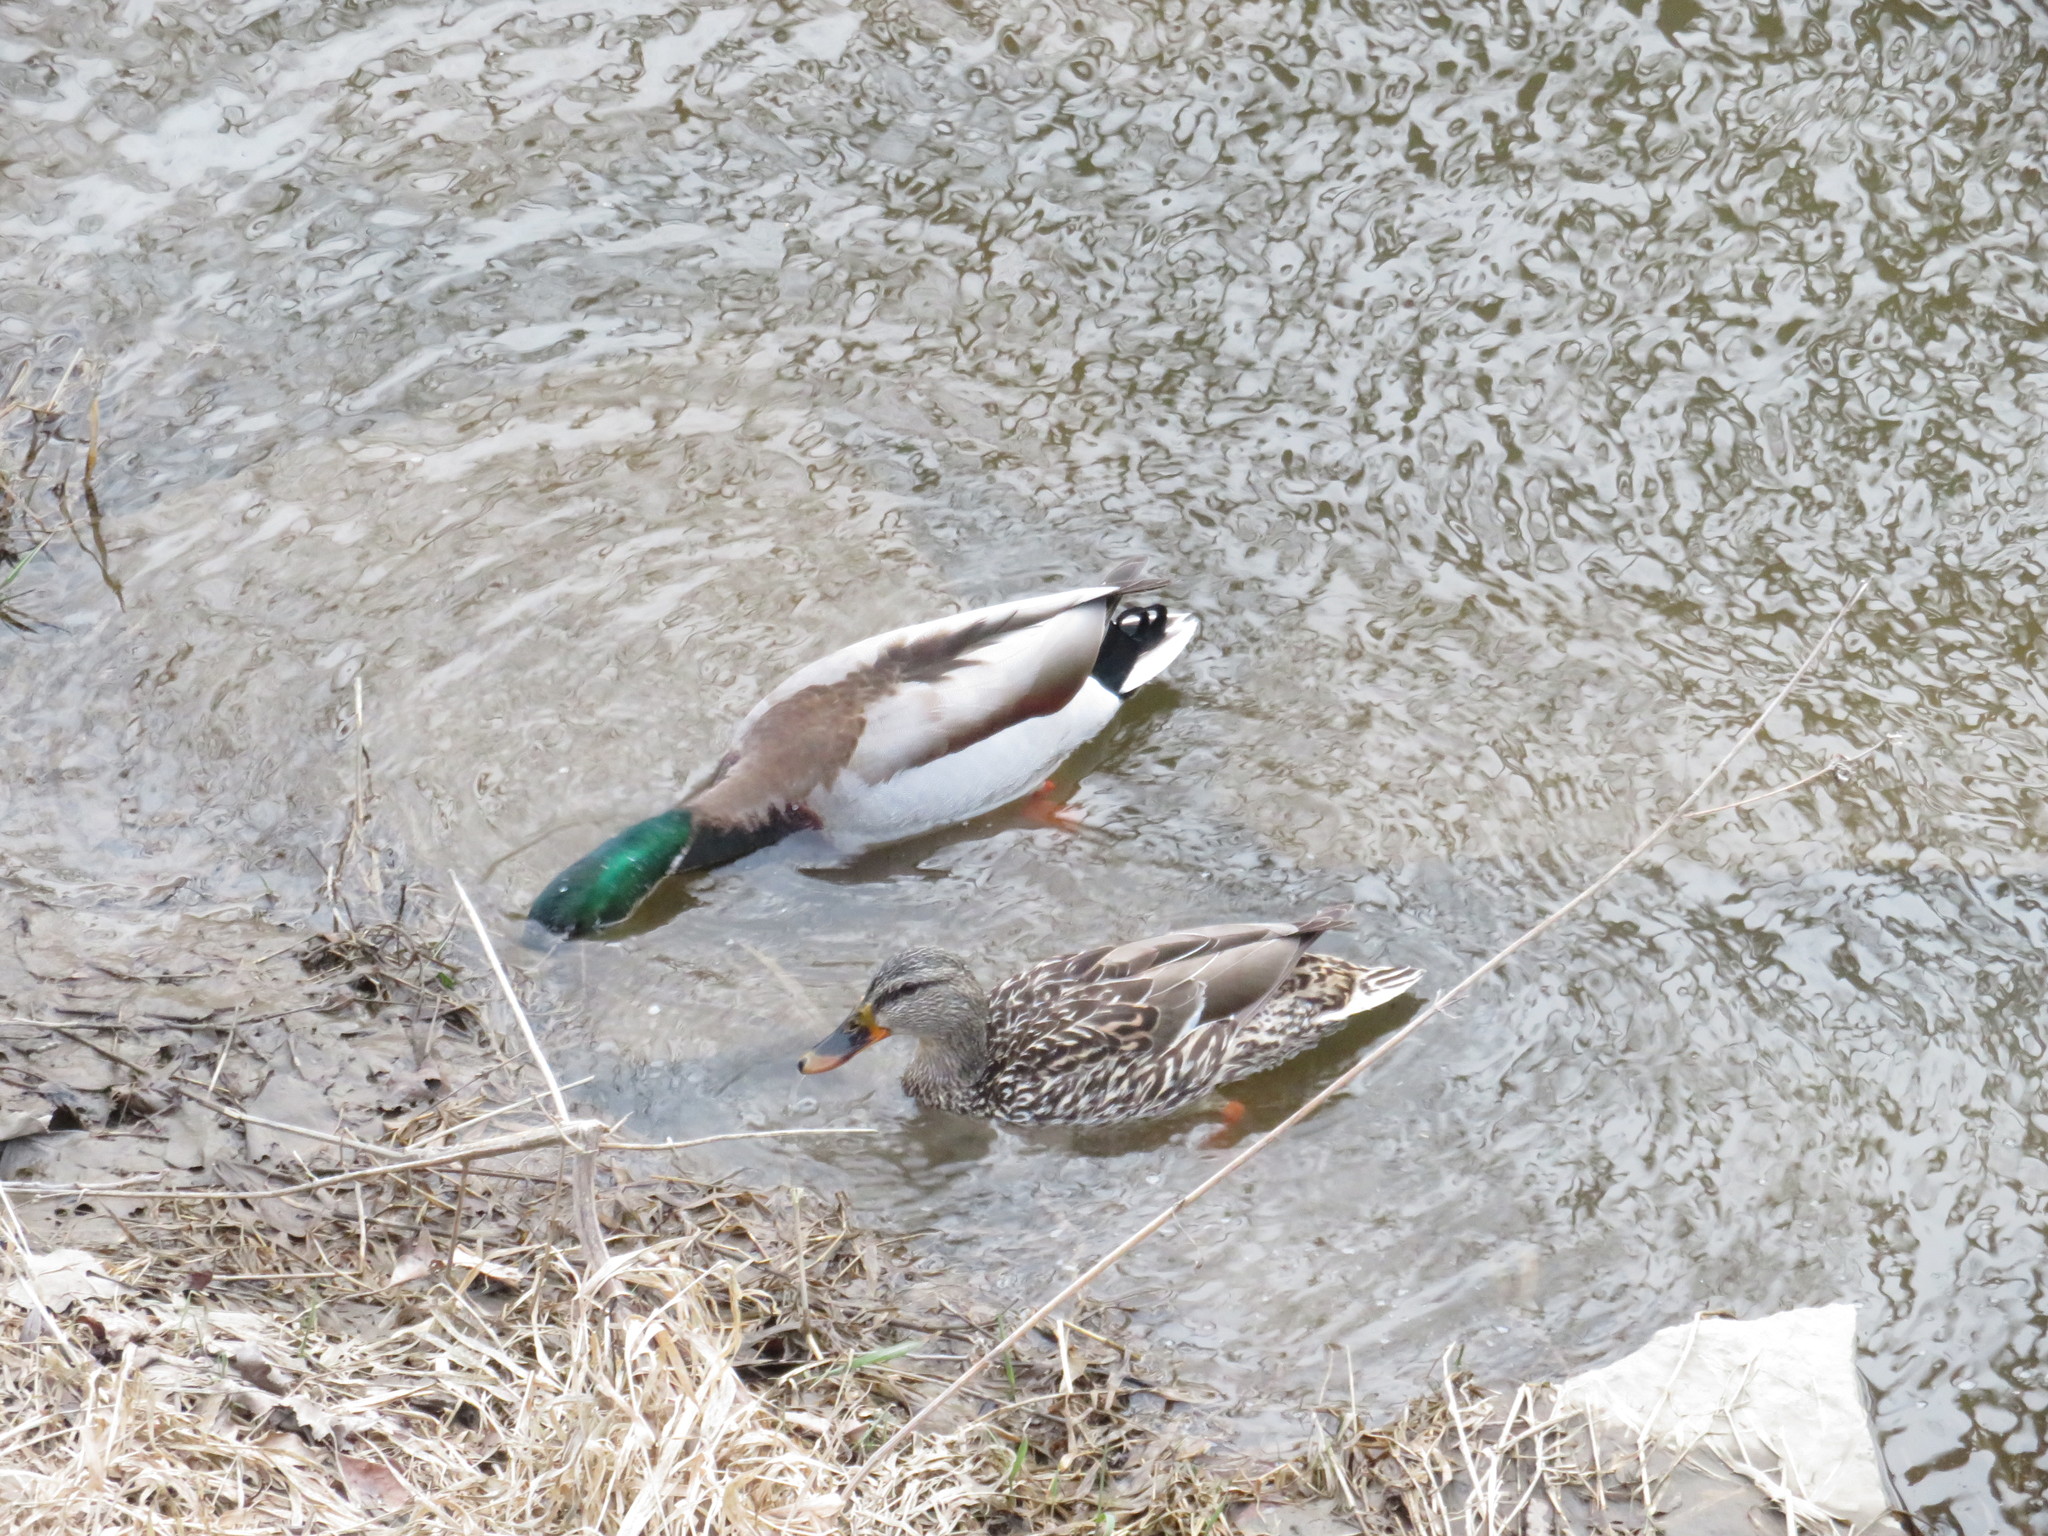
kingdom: Animalia
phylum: Chordata
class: Aves
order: Anseriformes
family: Anatidae
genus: Anas
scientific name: Anas platyrhynchos
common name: Mallard
